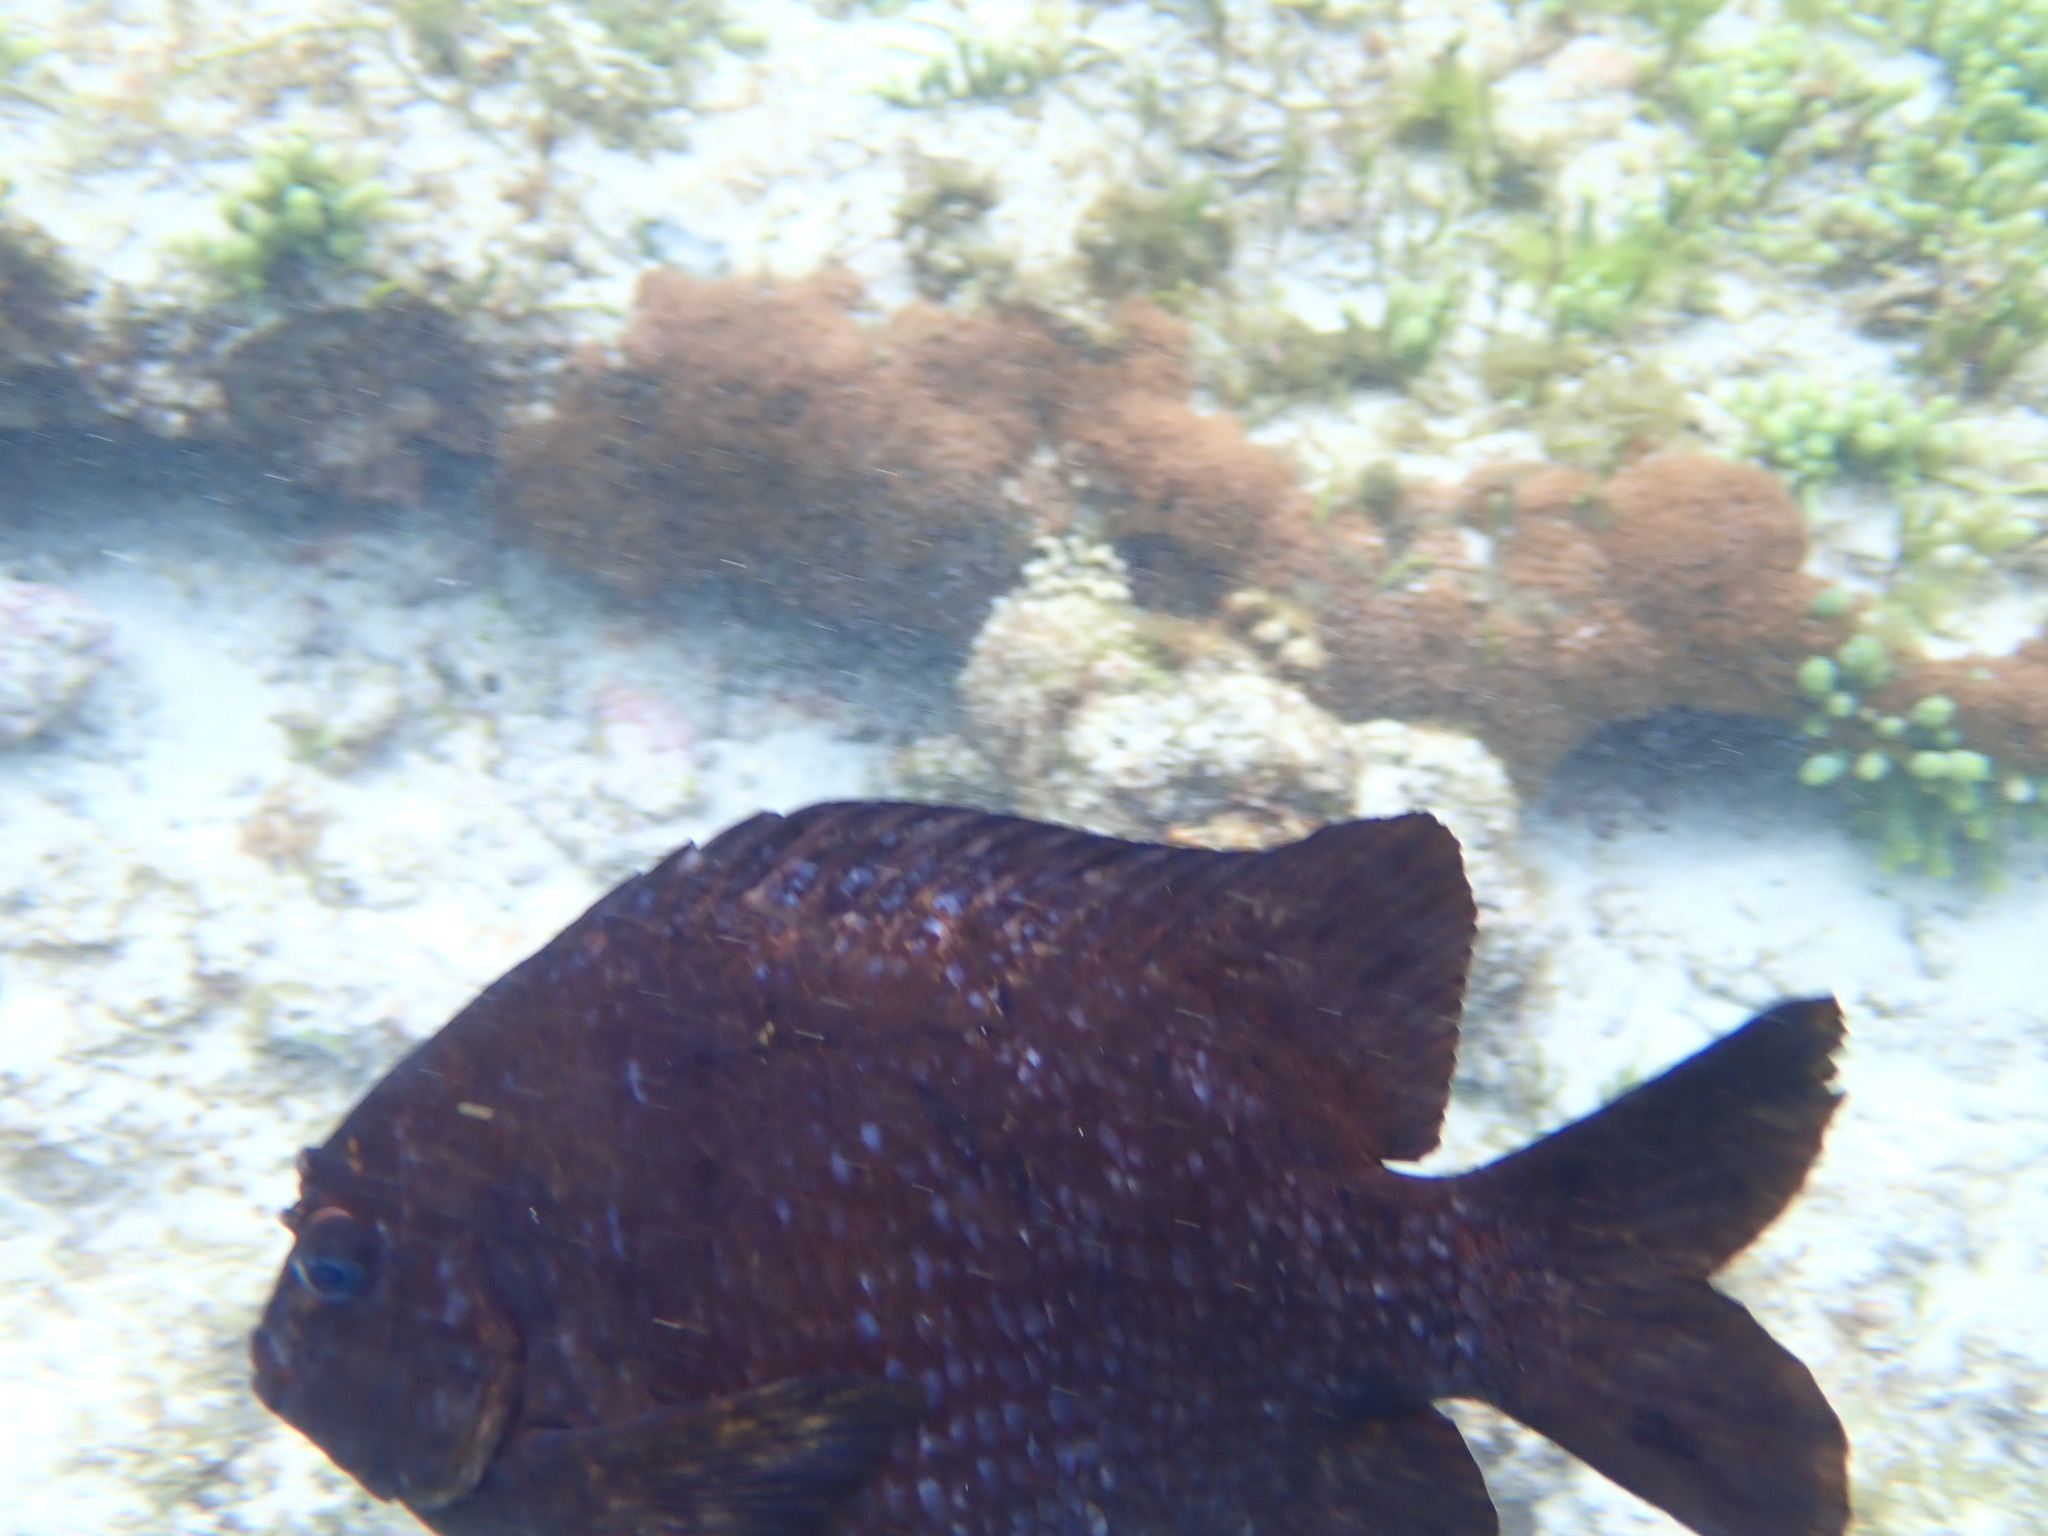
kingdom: Animalia
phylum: Chordata
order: Perciformes
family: Pomacentridae
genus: Parma
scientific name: Parma polylepis
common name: Banded parma
